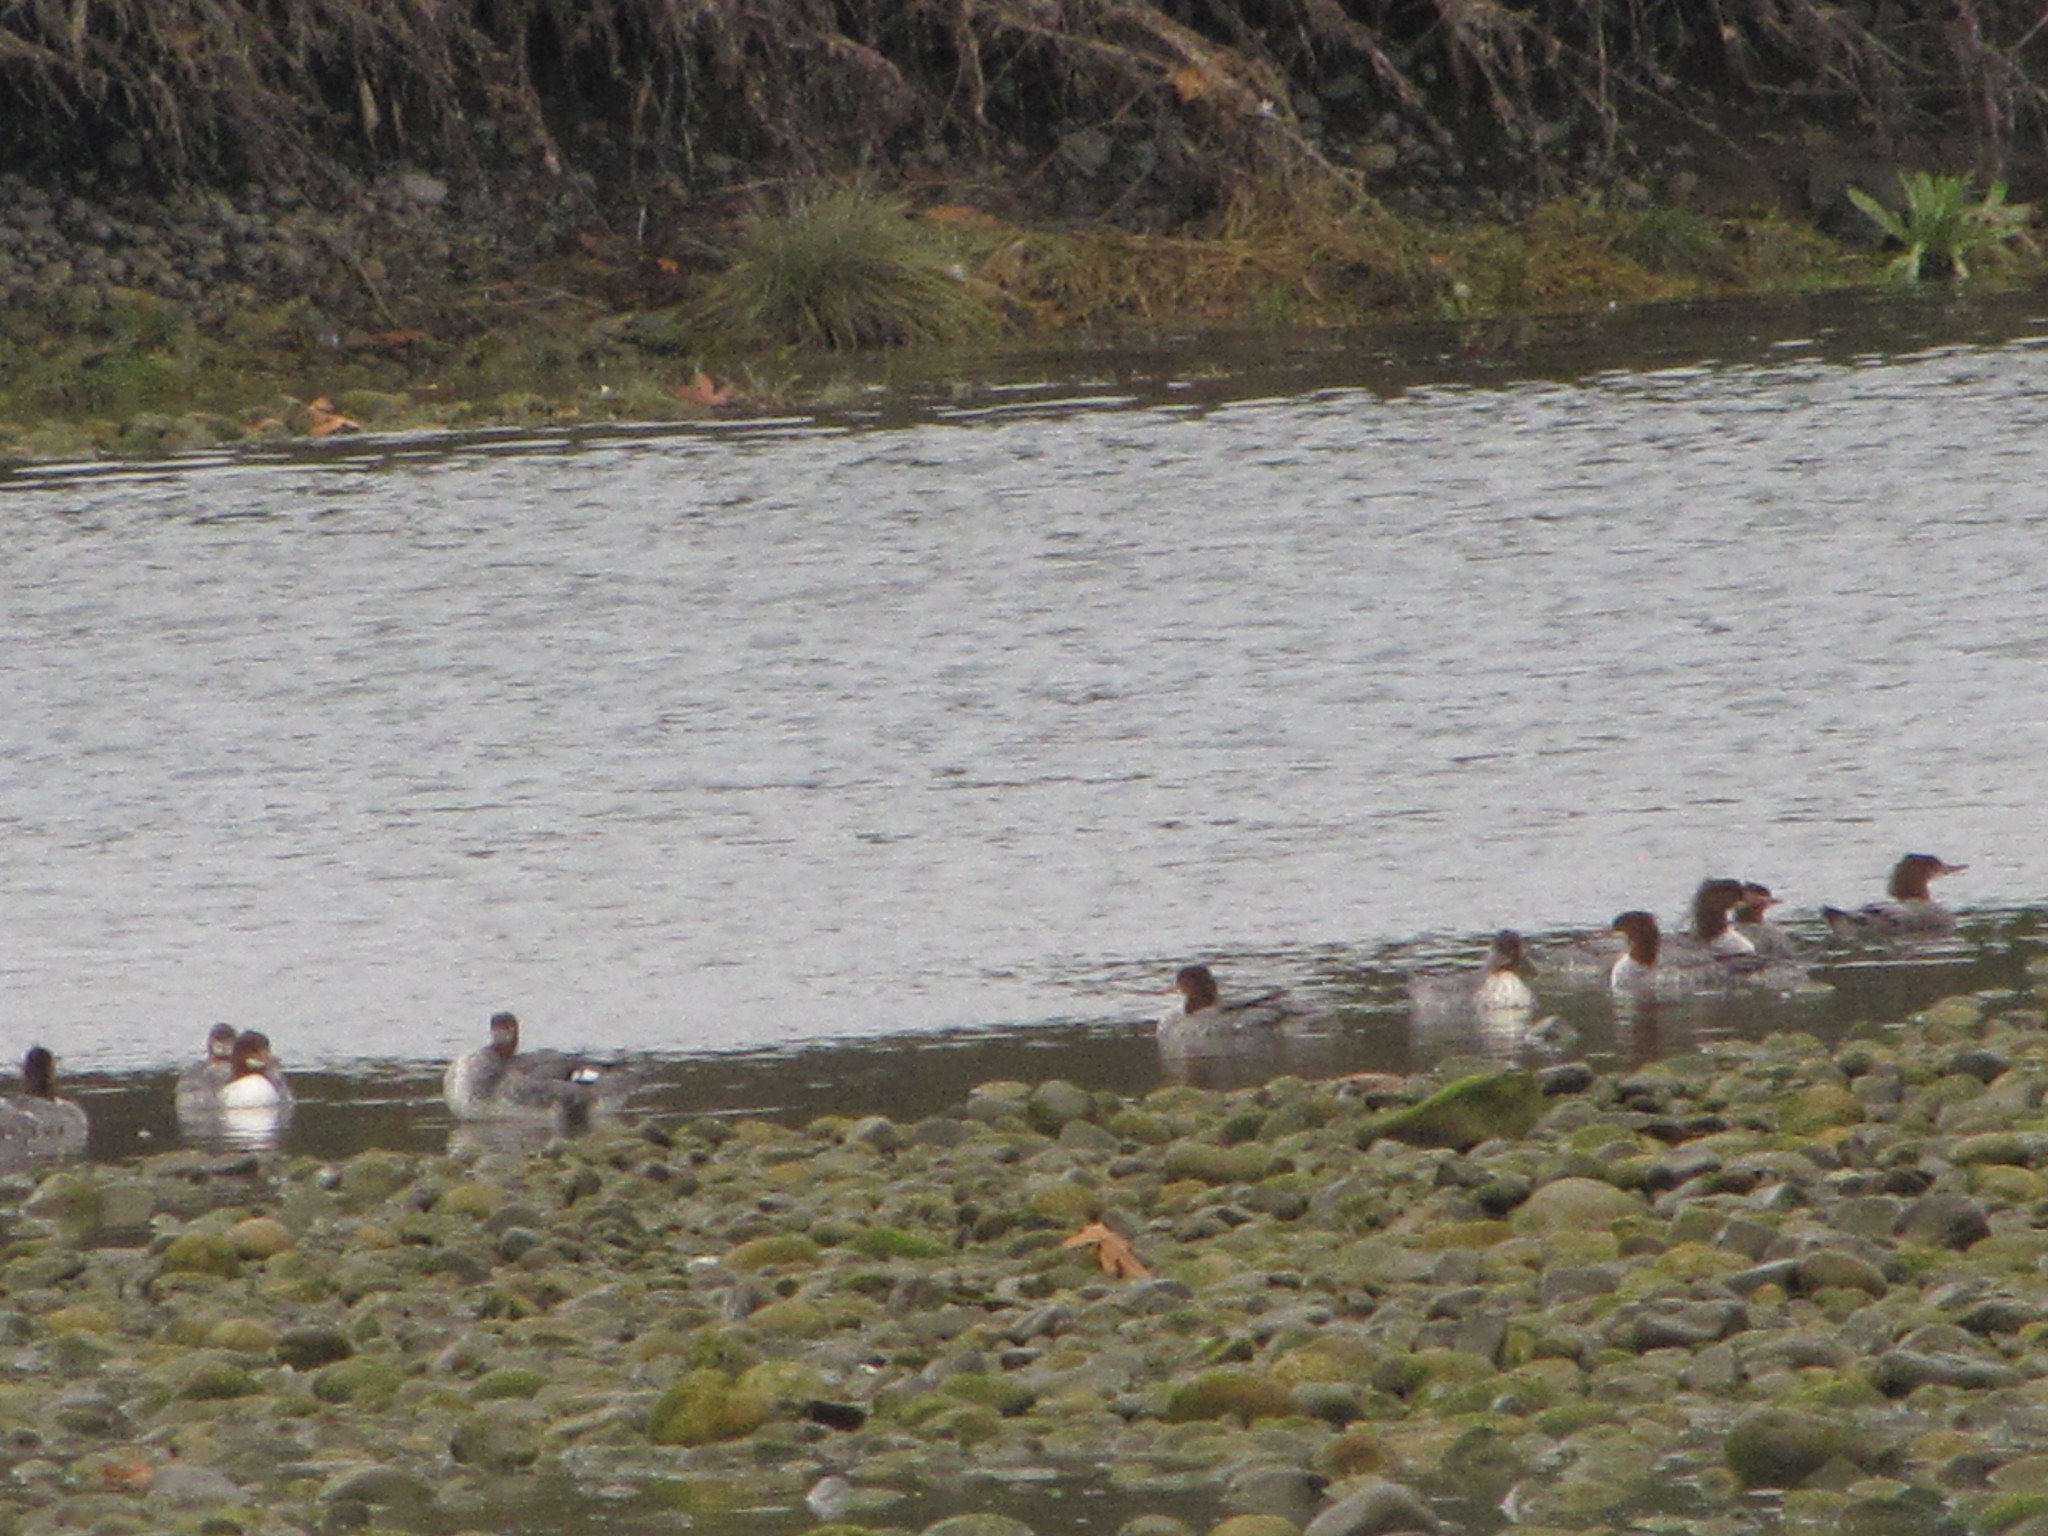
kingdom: Animalia
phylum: Chordata
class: Aves
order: Anseriformes
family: Anatidae
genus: Mergus
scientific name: Mergus merganser
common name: Common merganser
